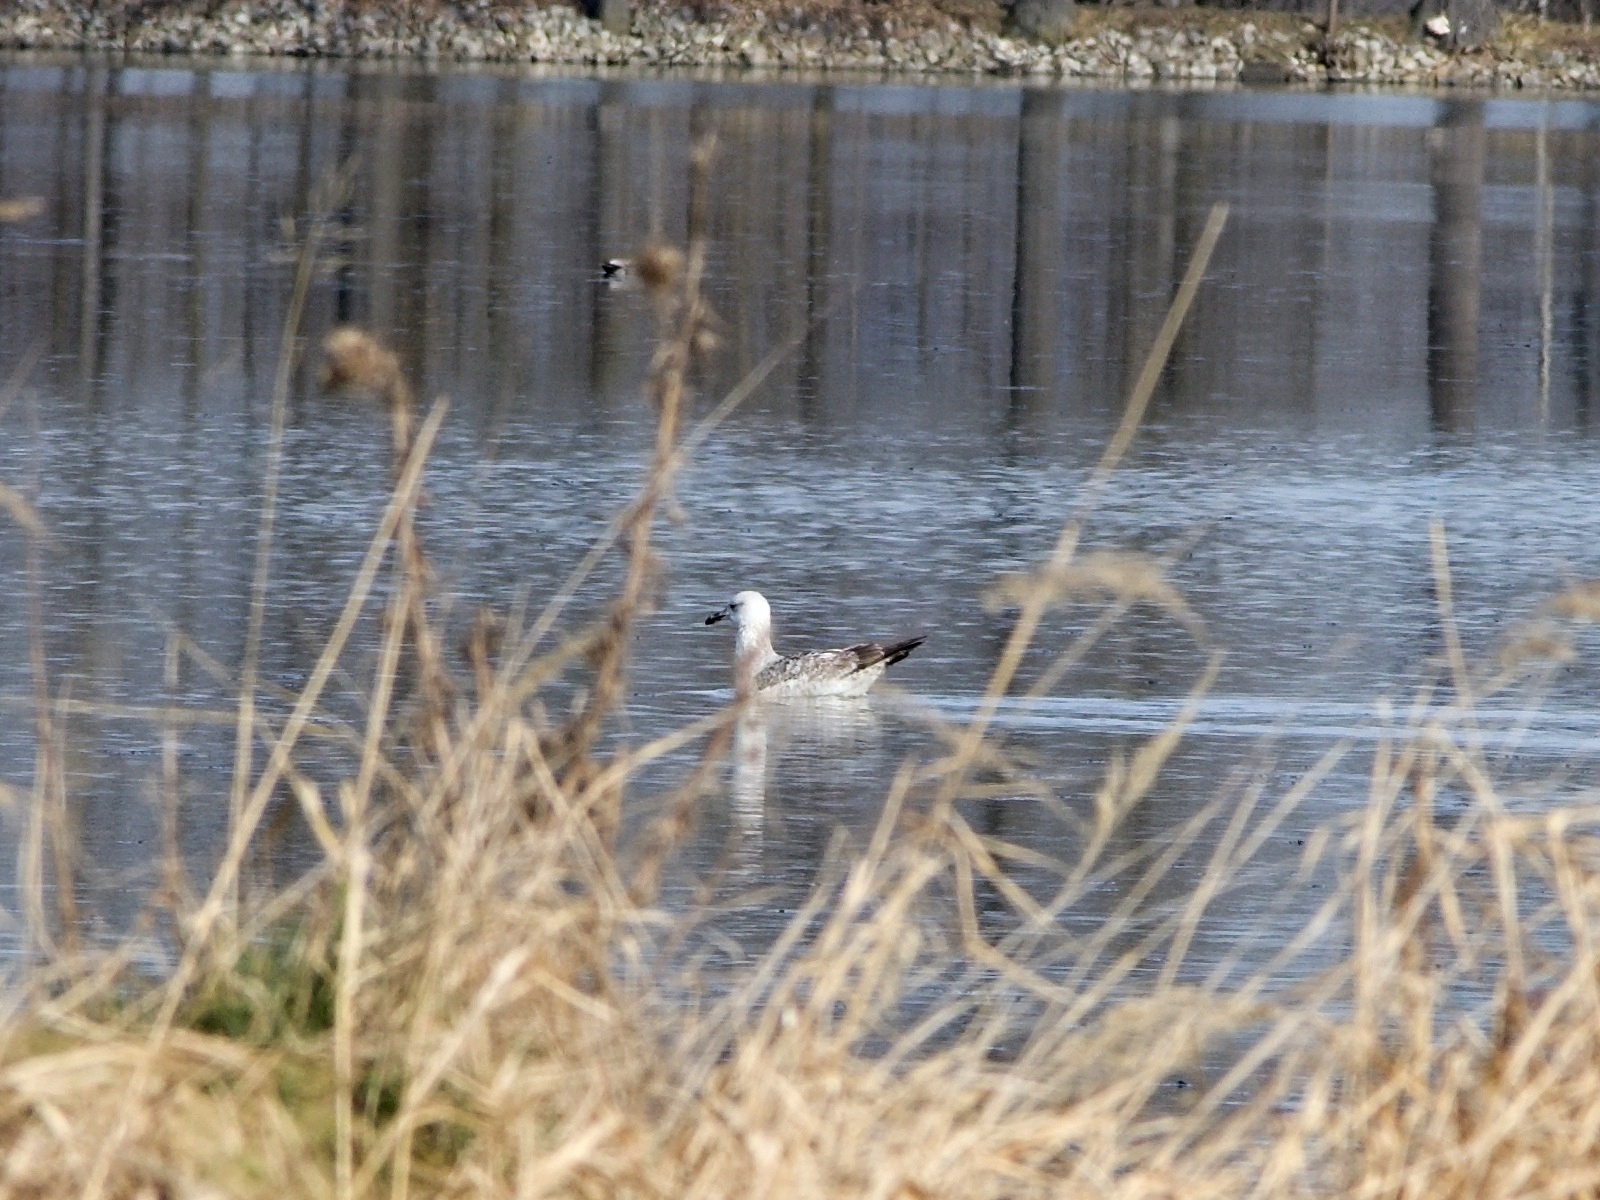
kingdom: Animalia
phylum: Chordata
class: Aves
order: Charadriiformes
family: Laridae
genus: Larus
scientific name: Larus cachinnans
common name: Caspian gull
